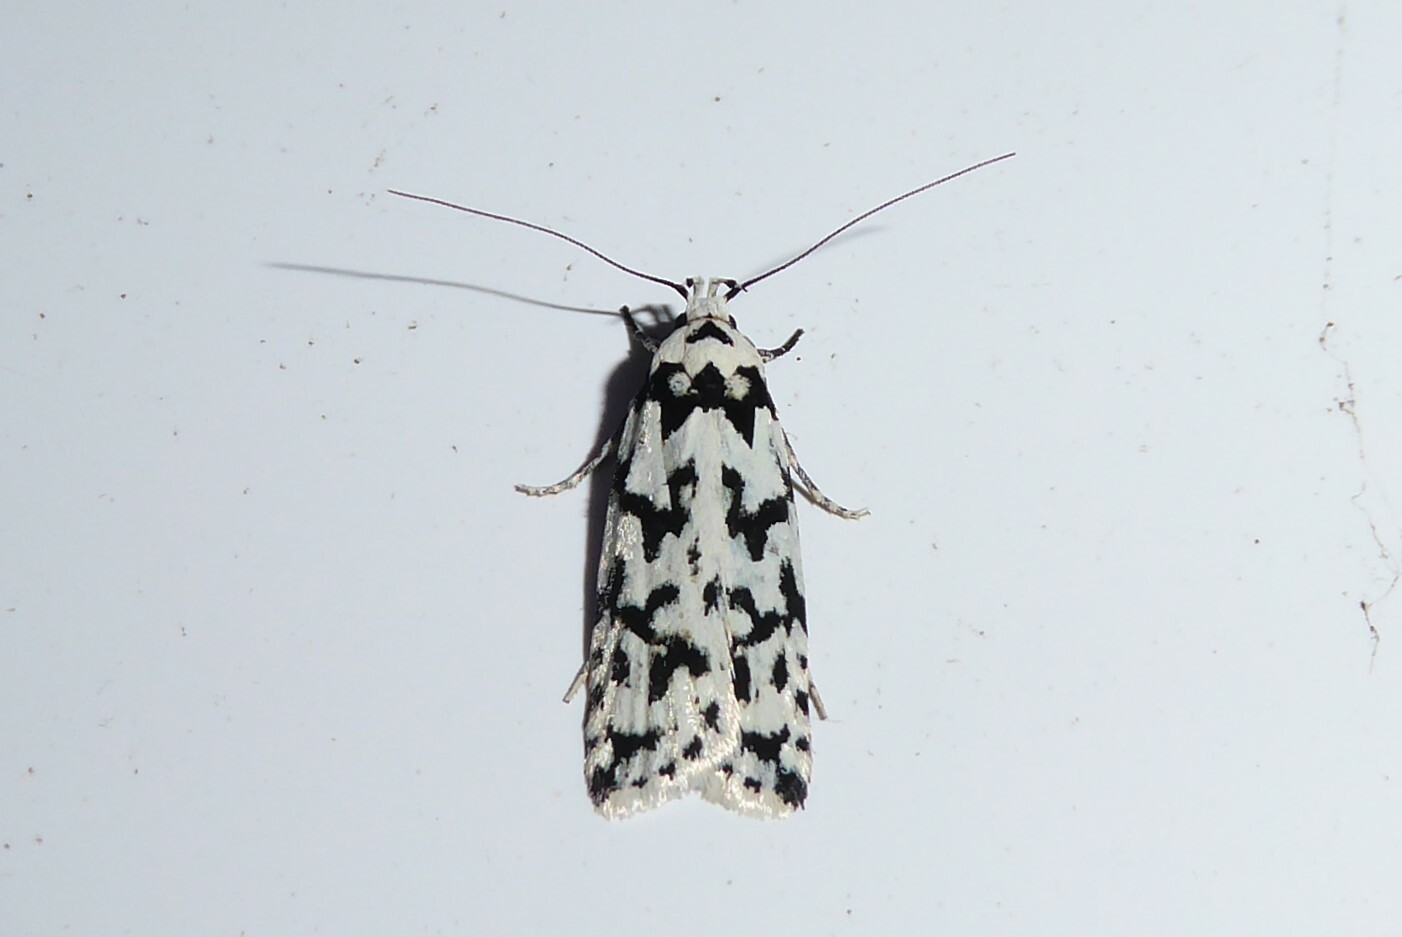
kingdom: Animalia
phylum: Arthropoda
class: Insecta
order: Lepidoptera
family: Oecophoridae
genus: Izatha
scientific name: Izatha katadiktya
